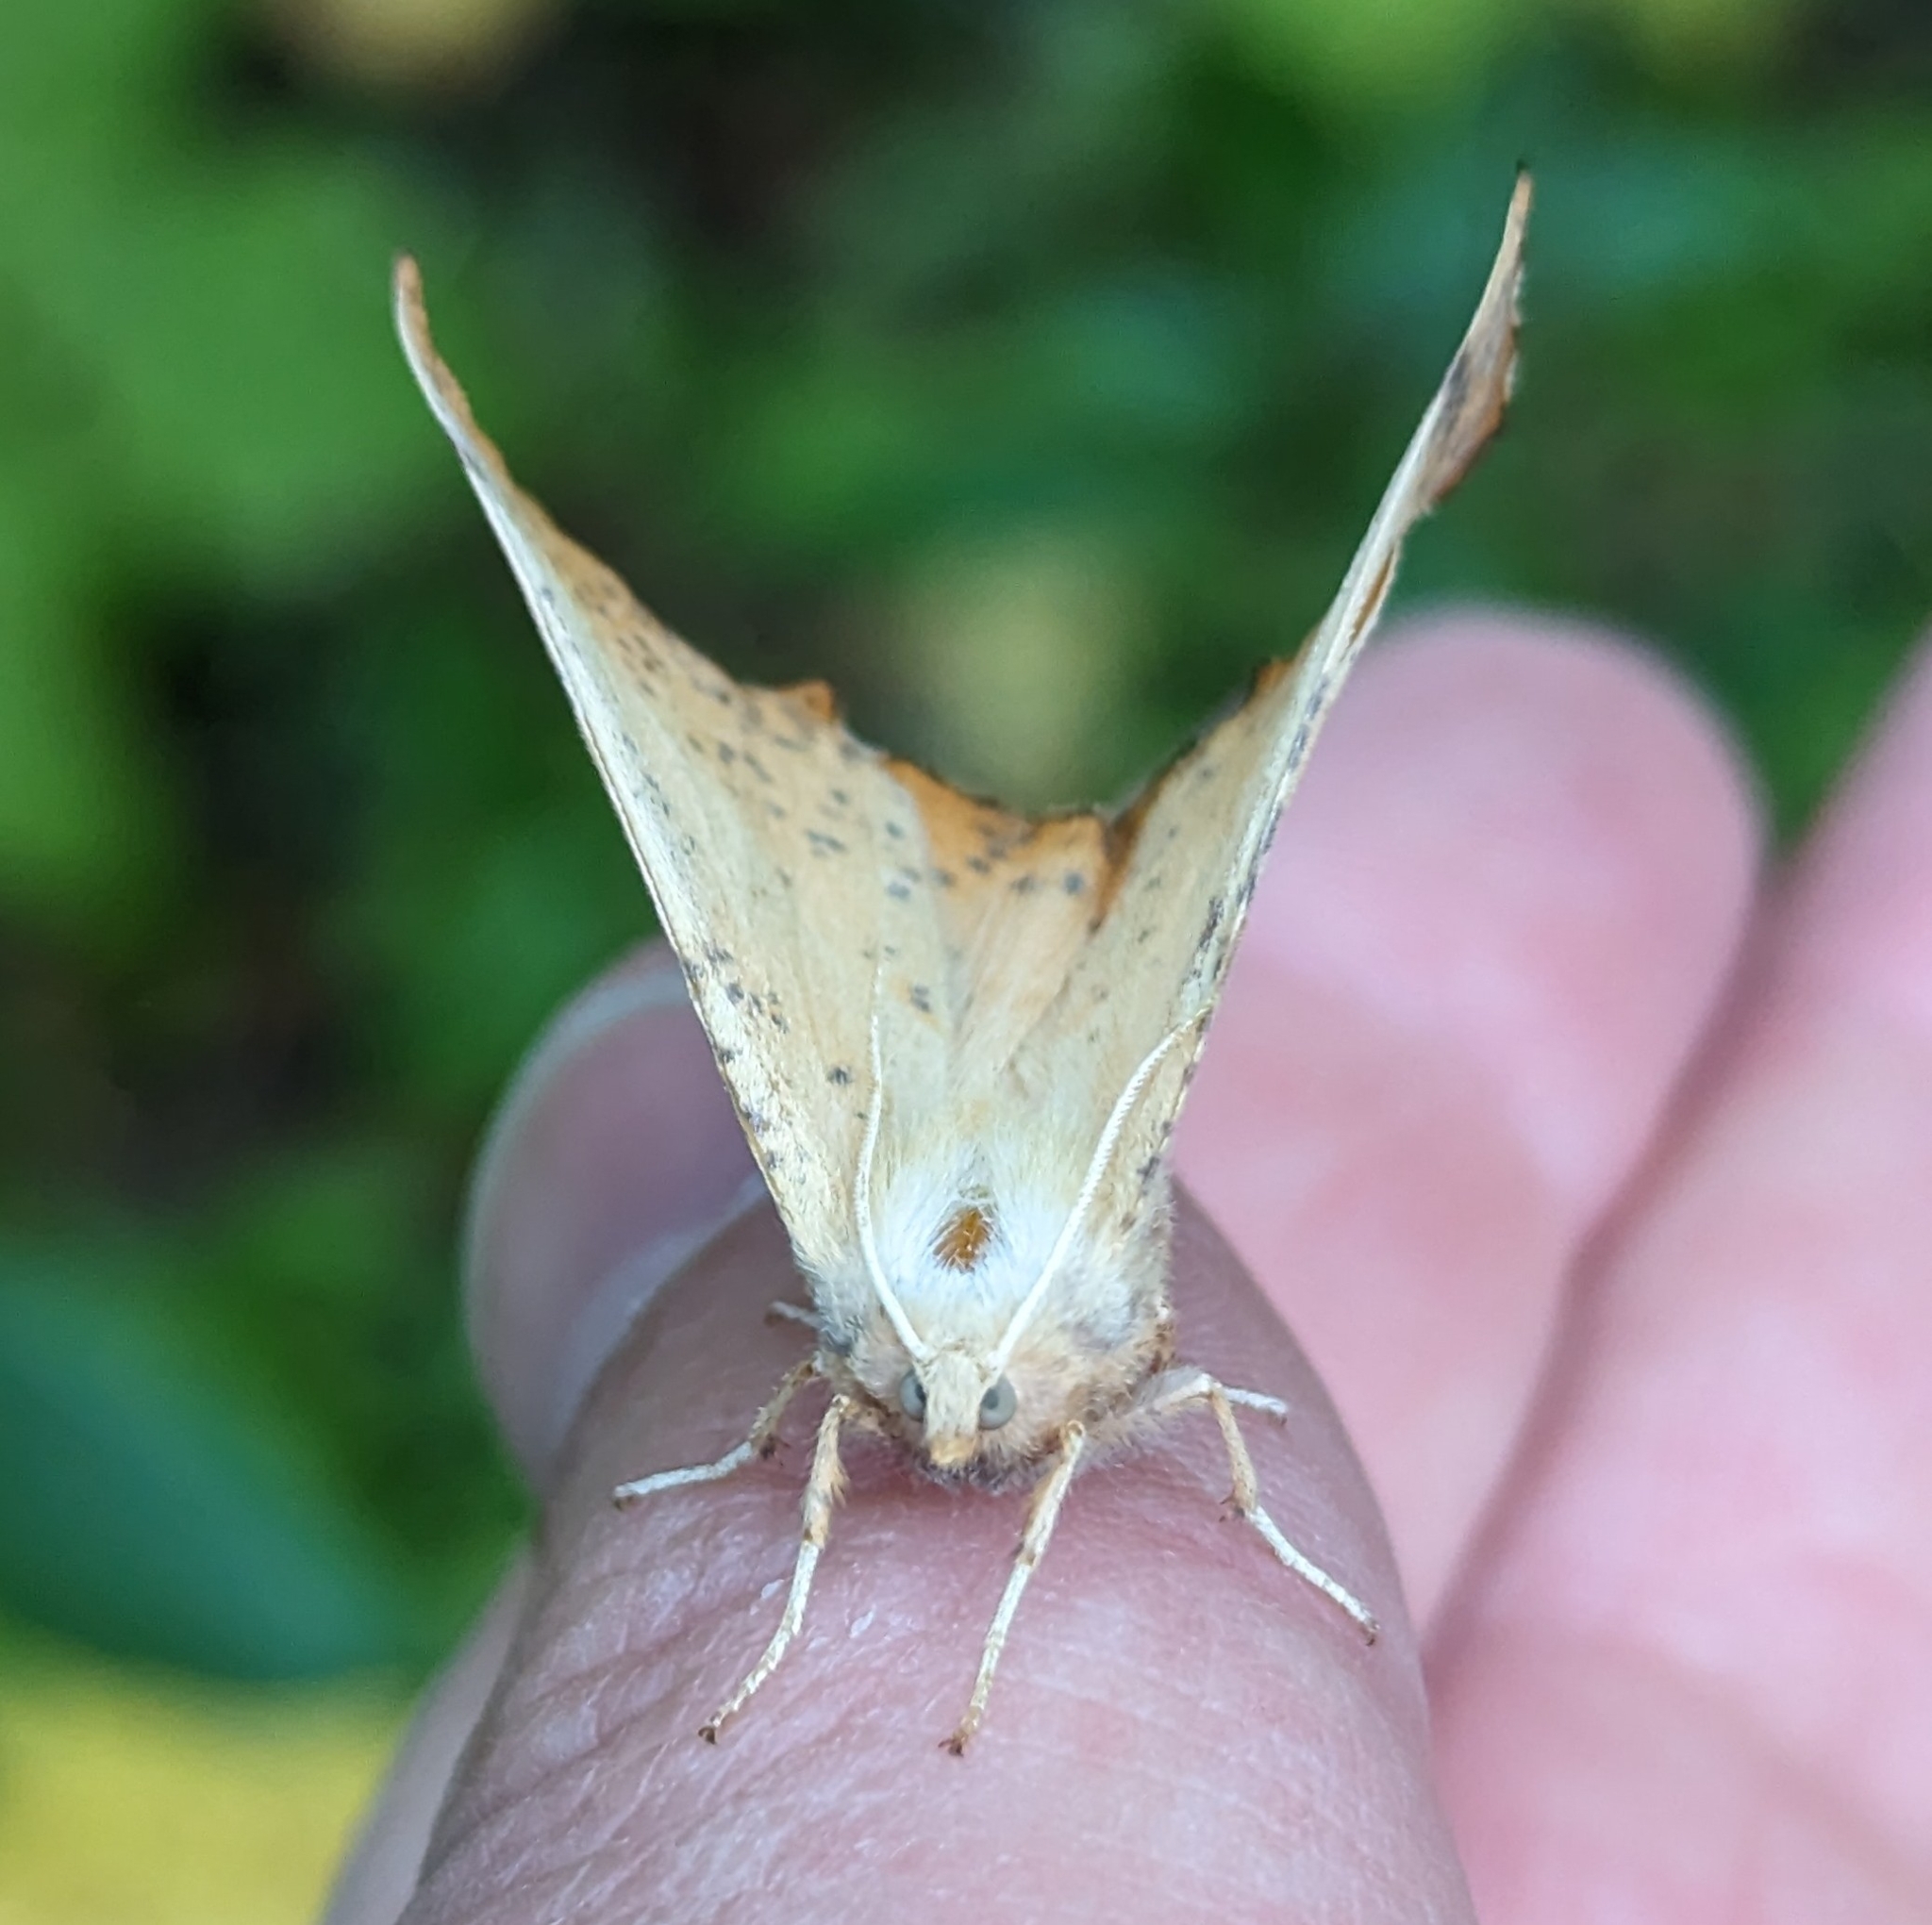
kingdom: Animalia
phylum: Arthropoda
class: Insecta
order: Lepidoptera
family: Geometridae
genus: Ennomos
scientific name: Ennomos magnaria
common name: Maple spanworm
